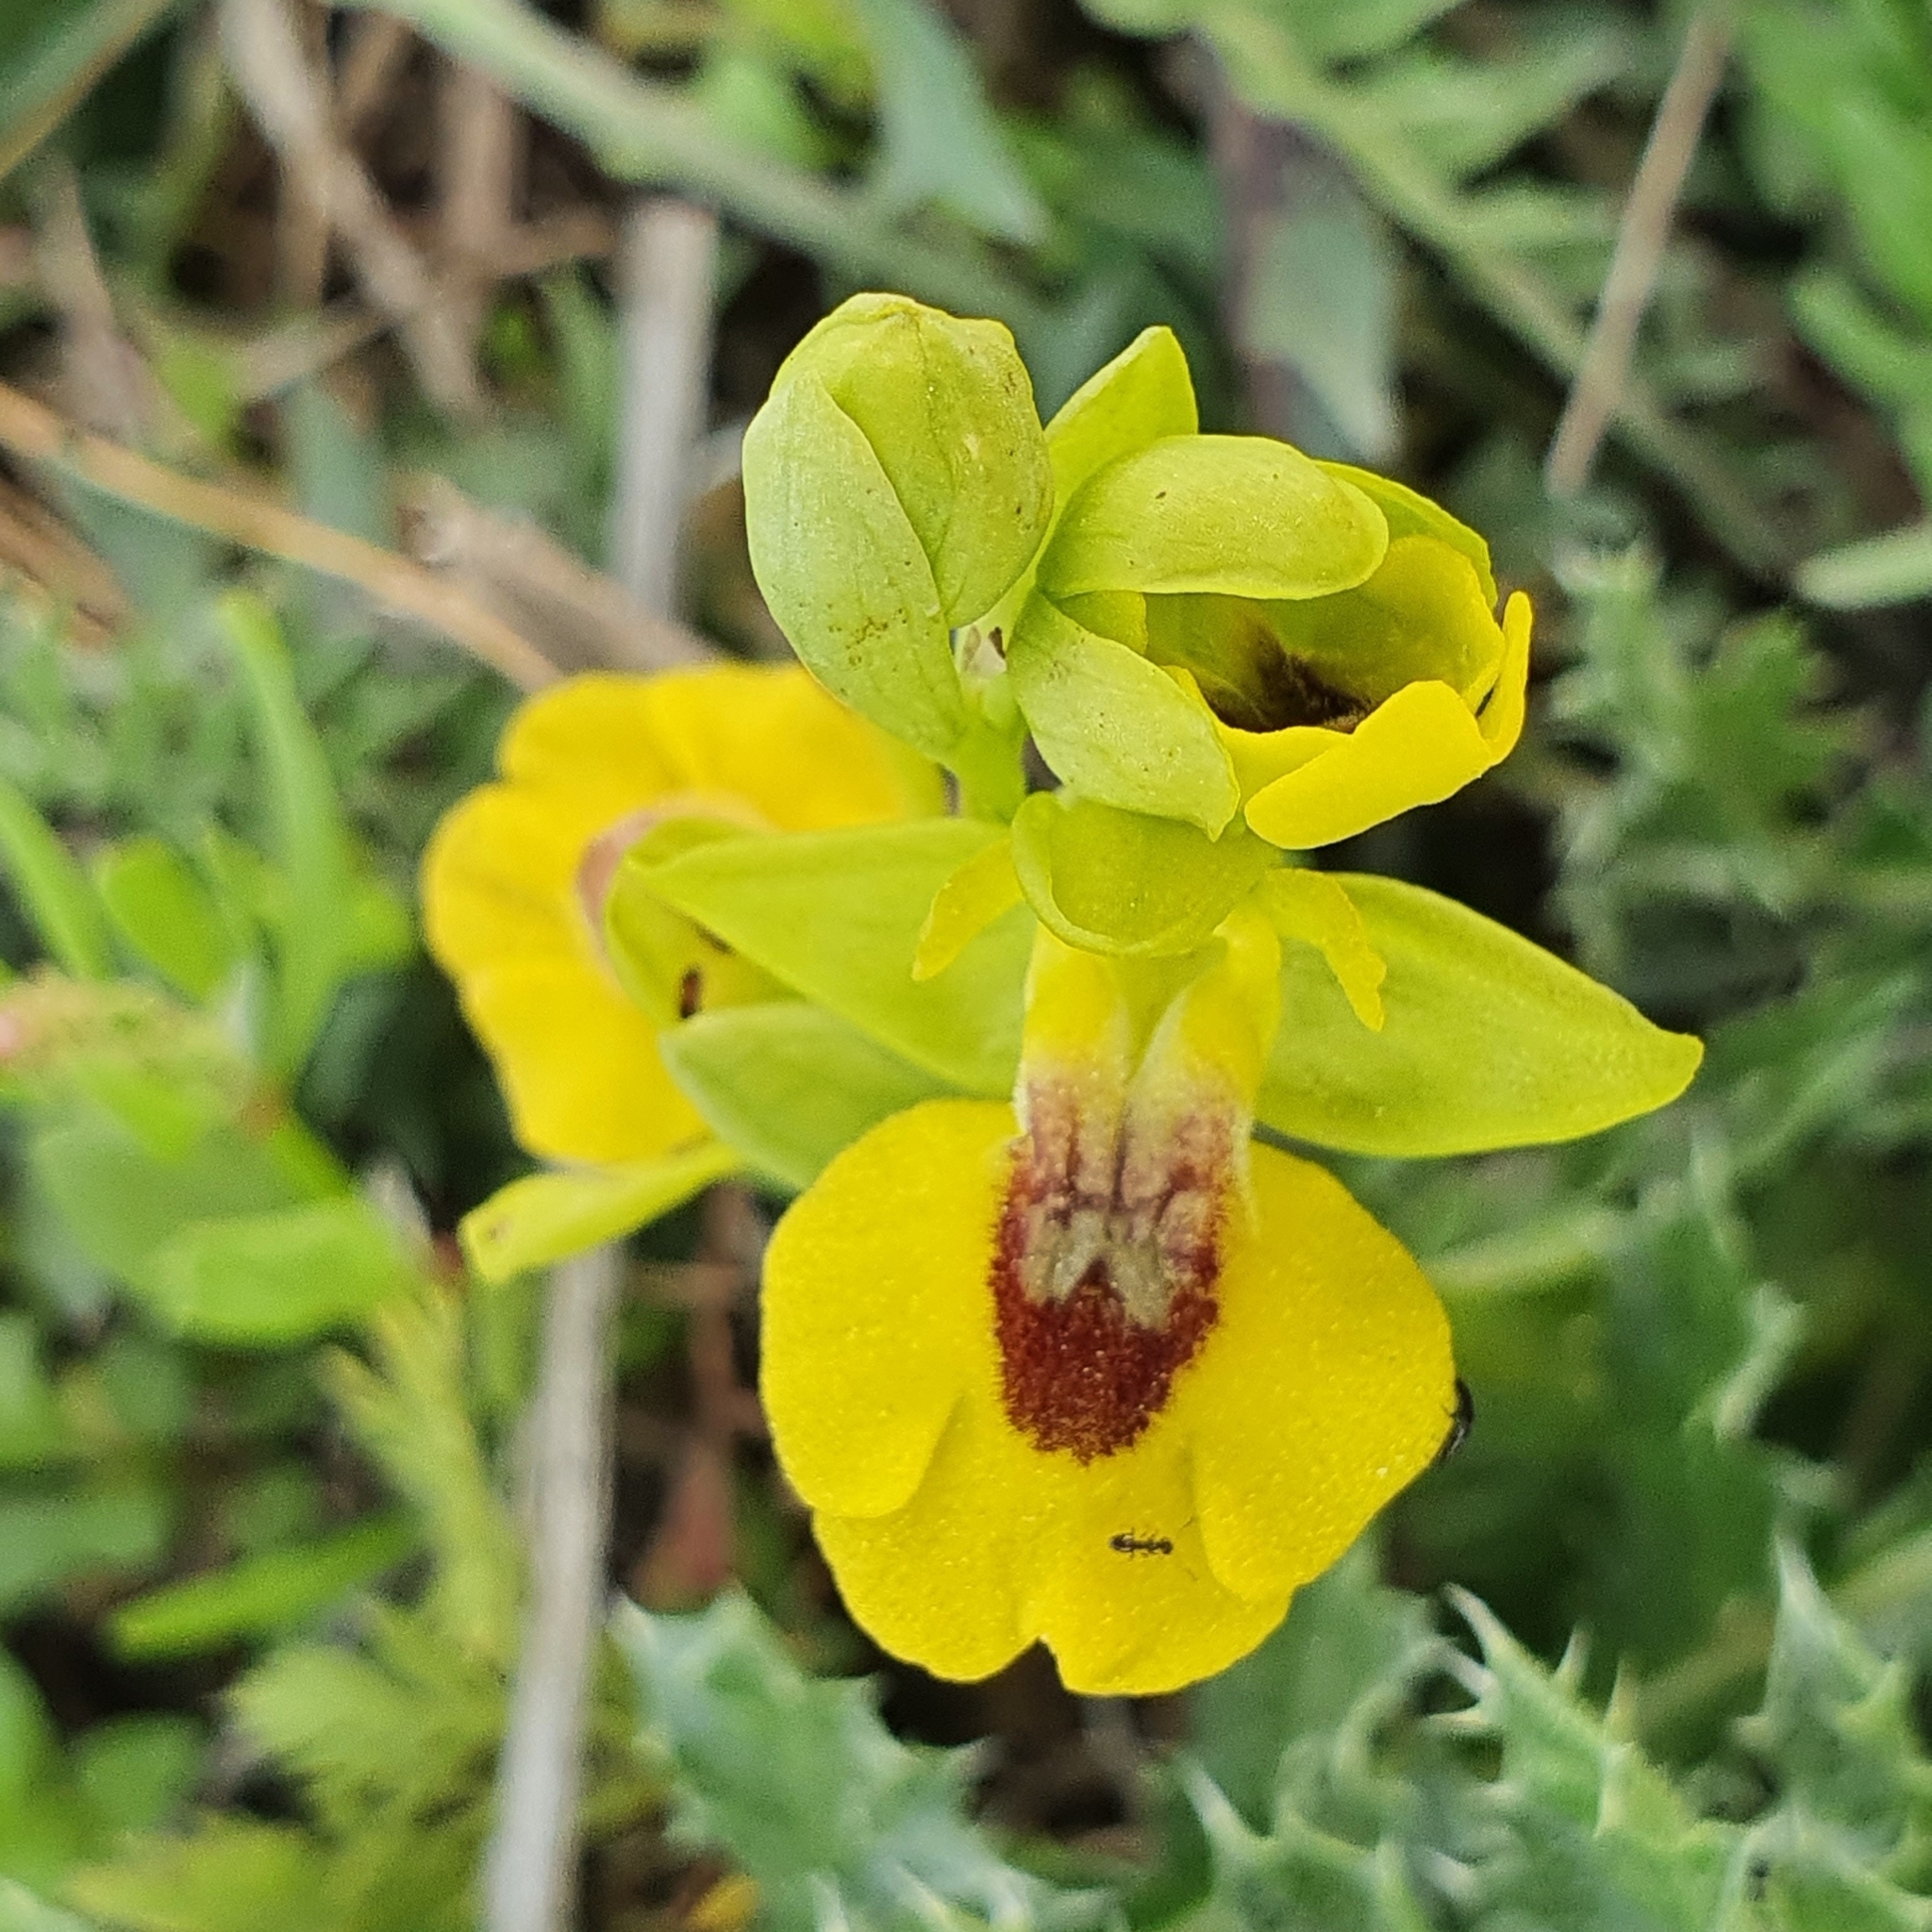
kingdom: Plantae
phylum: Tracheophyta
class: Liliopsida
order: Asparagales
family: Orchidaceae
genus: Ophrys
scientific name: Ophrys lutea
